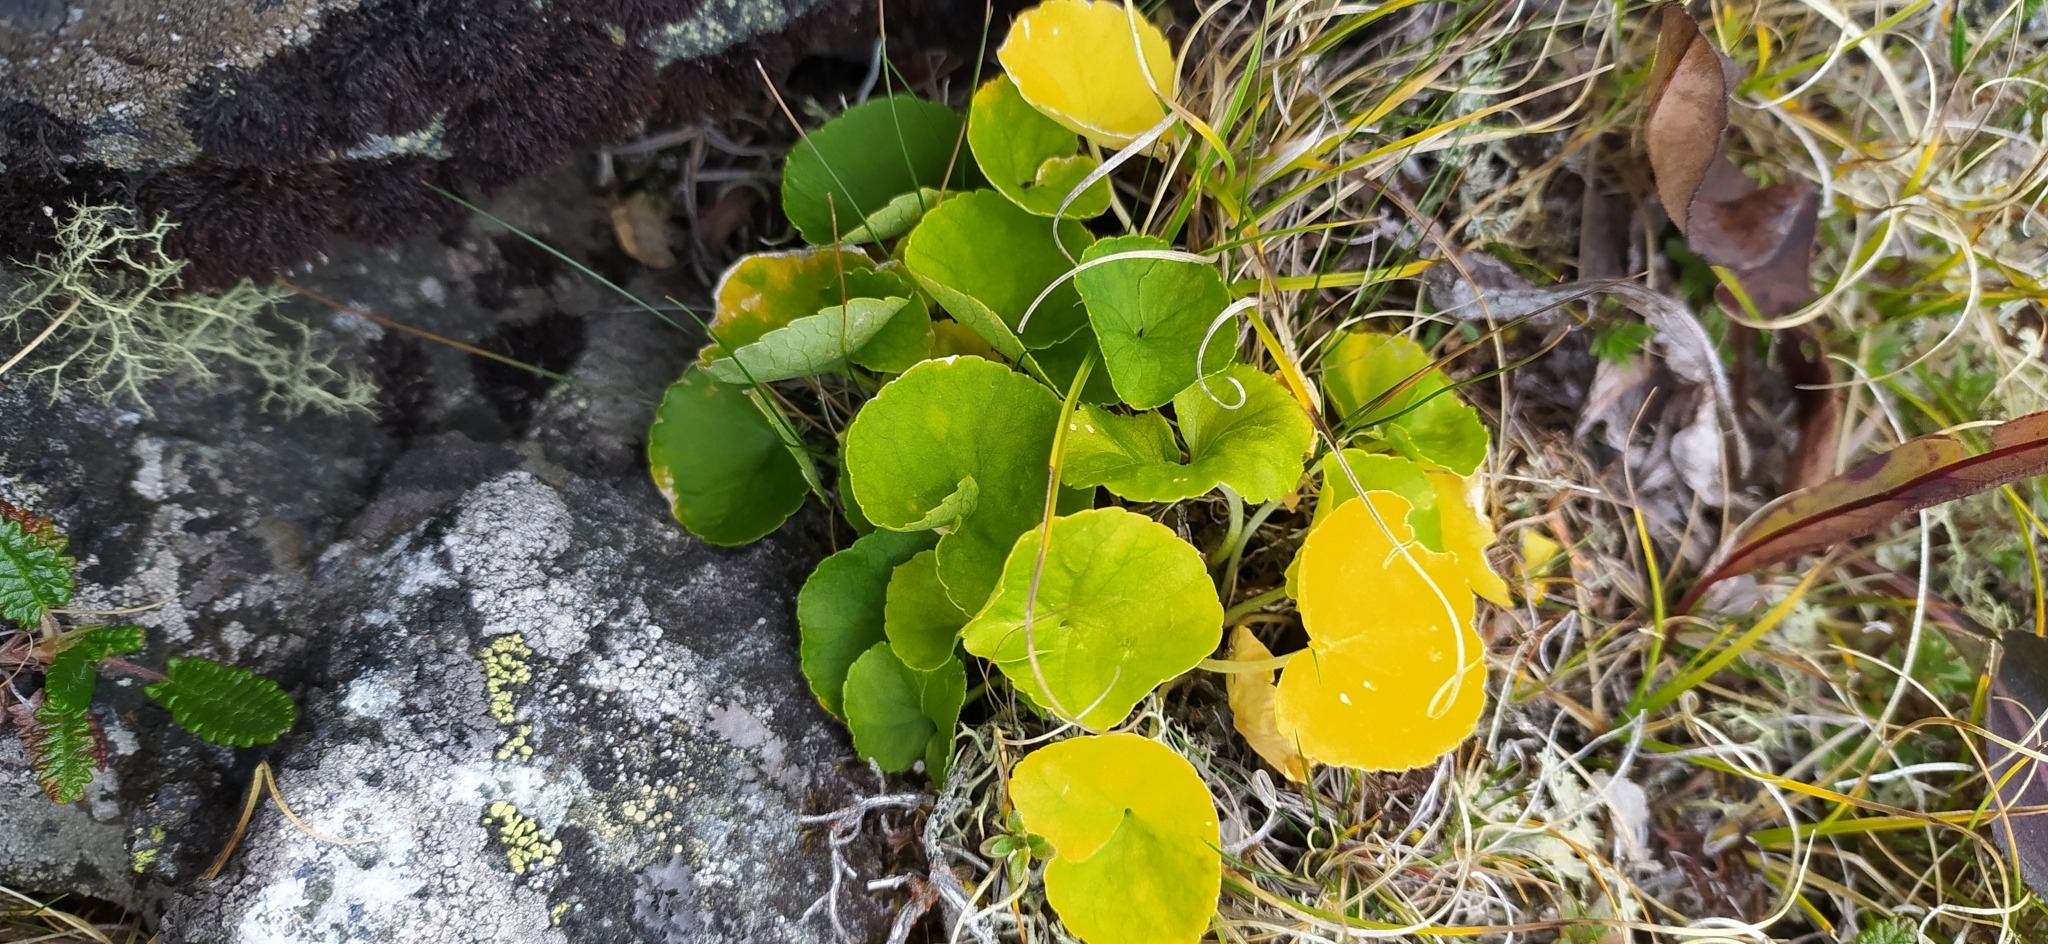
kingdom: Plantae
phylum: Tracheophyta
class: Magnoliopsida
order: Malpighiales
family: Violaceae
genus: Viola
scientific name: Viola biflora
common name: Alpine yellow violet
